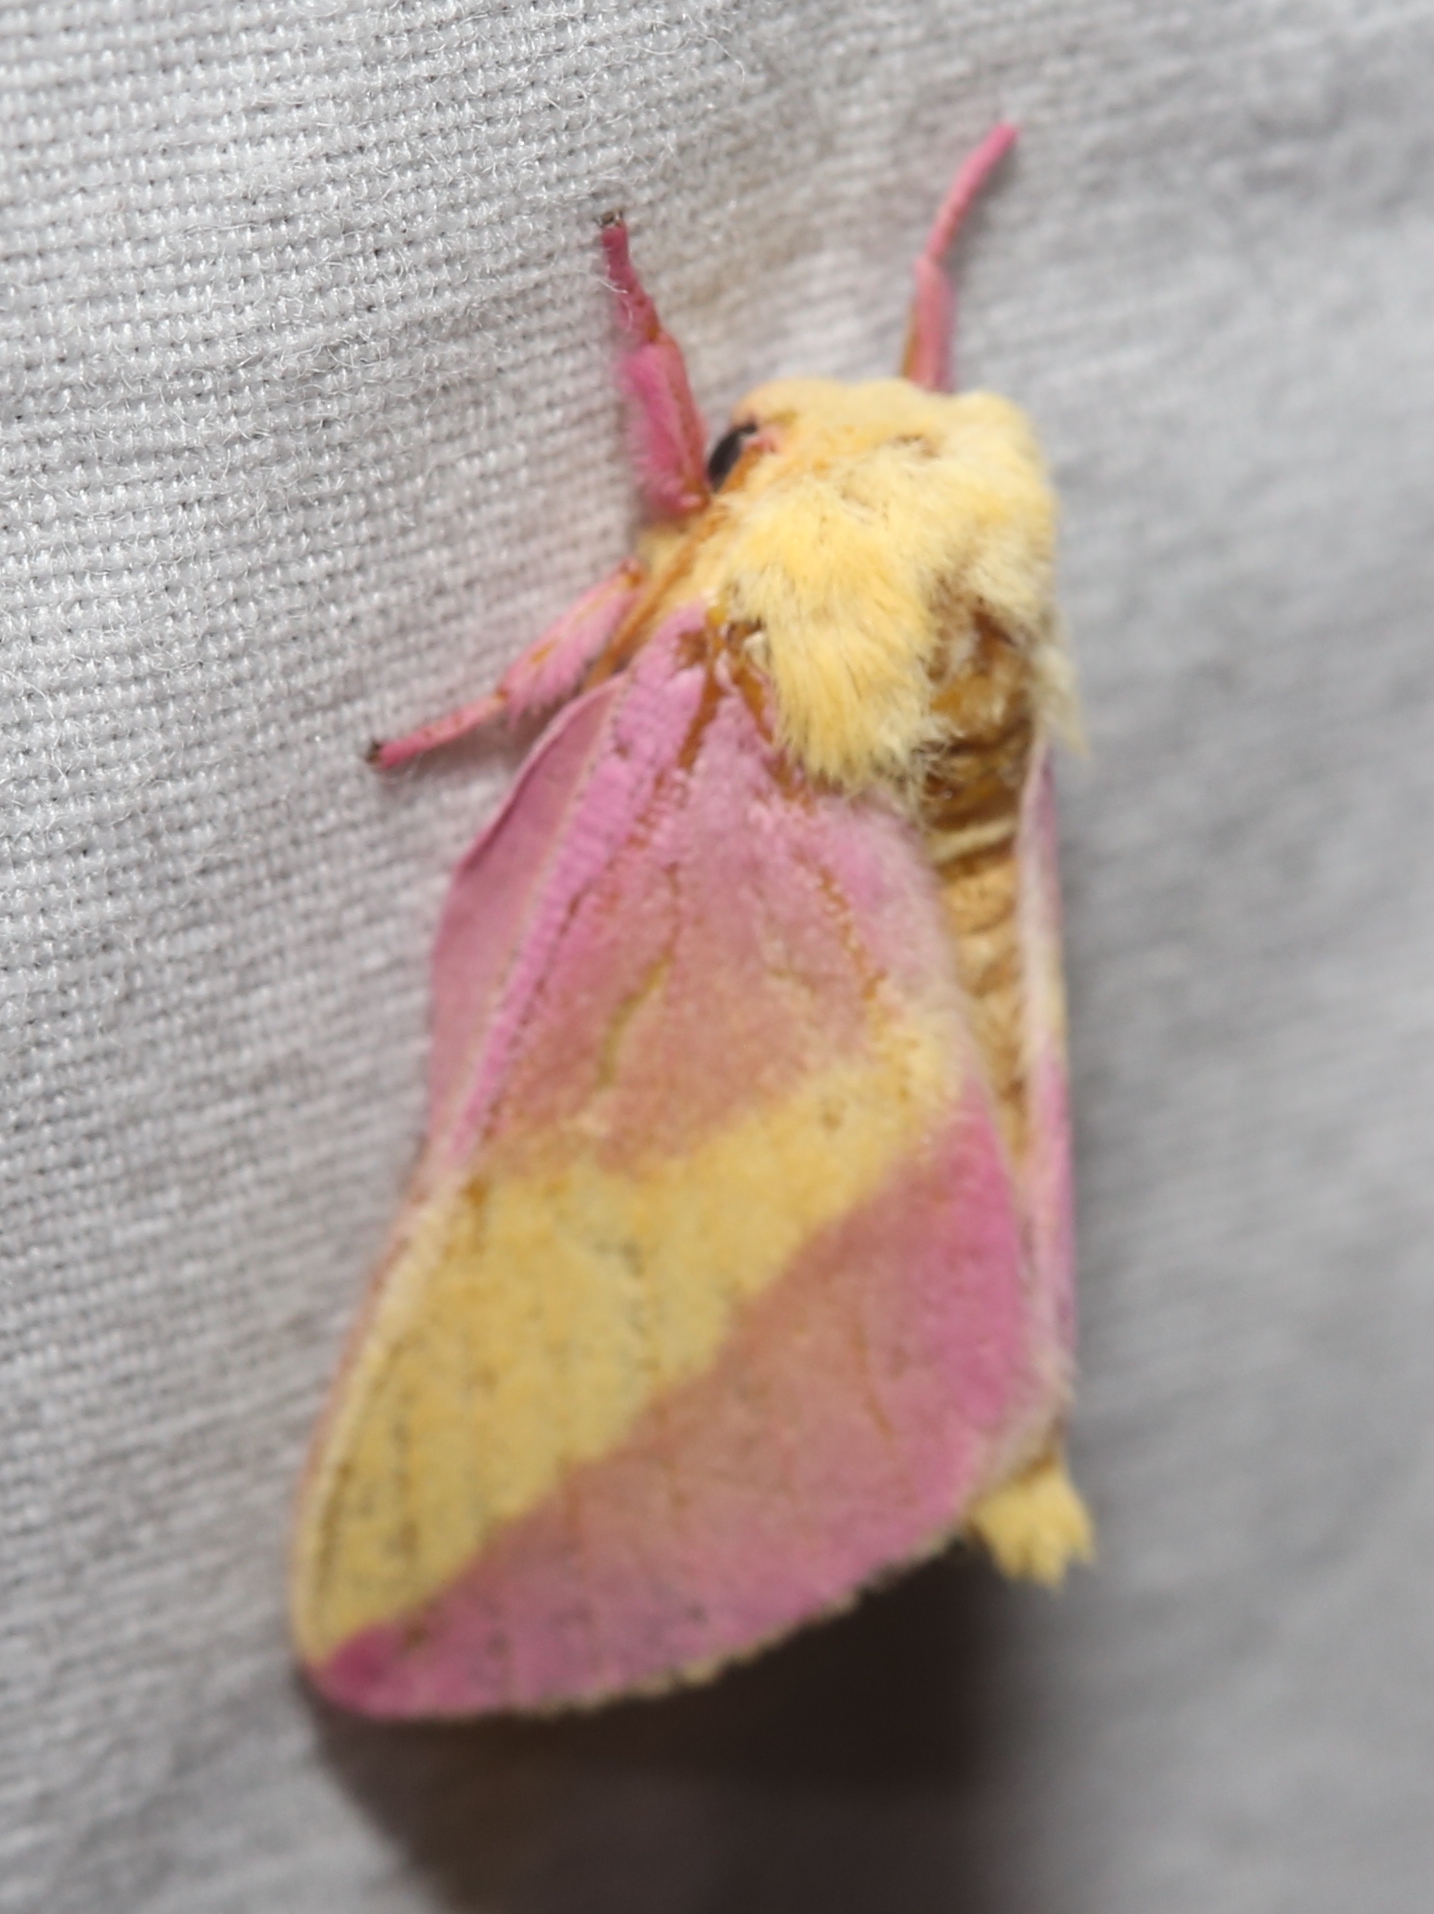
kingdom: Animalia
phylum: Arthropoda
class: Insecta
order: Lepidoptera
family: Saturniidae
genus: Dryocampa
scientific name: Dryocampa rubicunda
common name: Rosy maple moth
